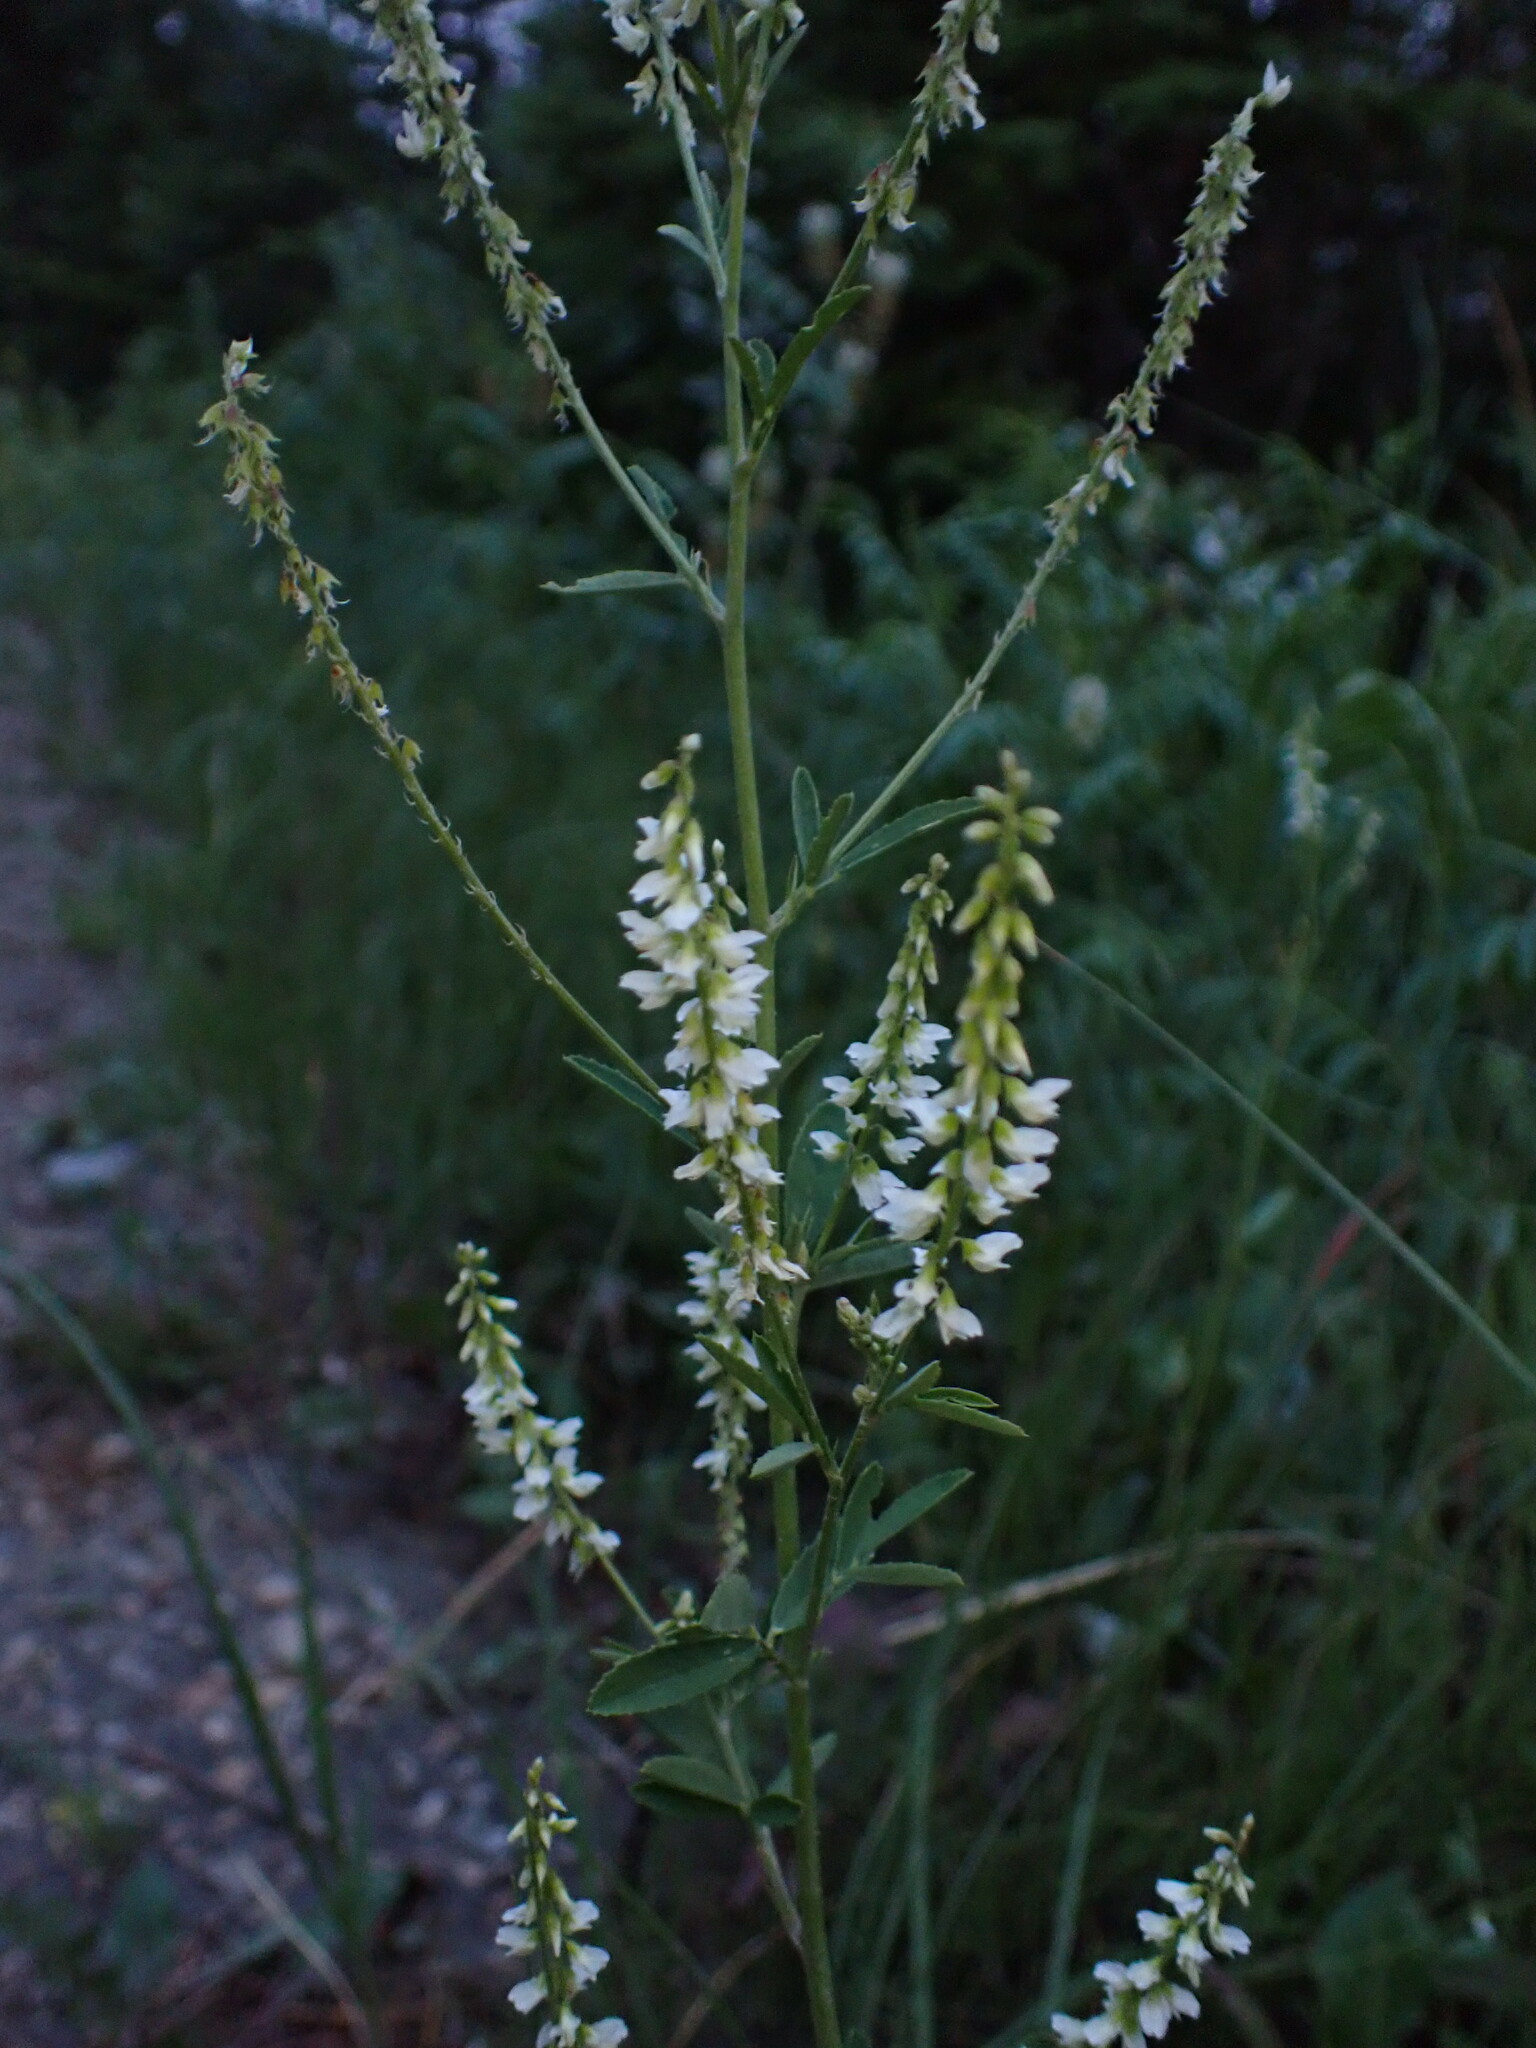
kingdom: Plantae
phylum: Tracheophyta
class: Magnoliopsida
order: Fabales
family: Fabaceae
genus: Melilotus
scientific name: Melilotus albus
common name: White melilot
